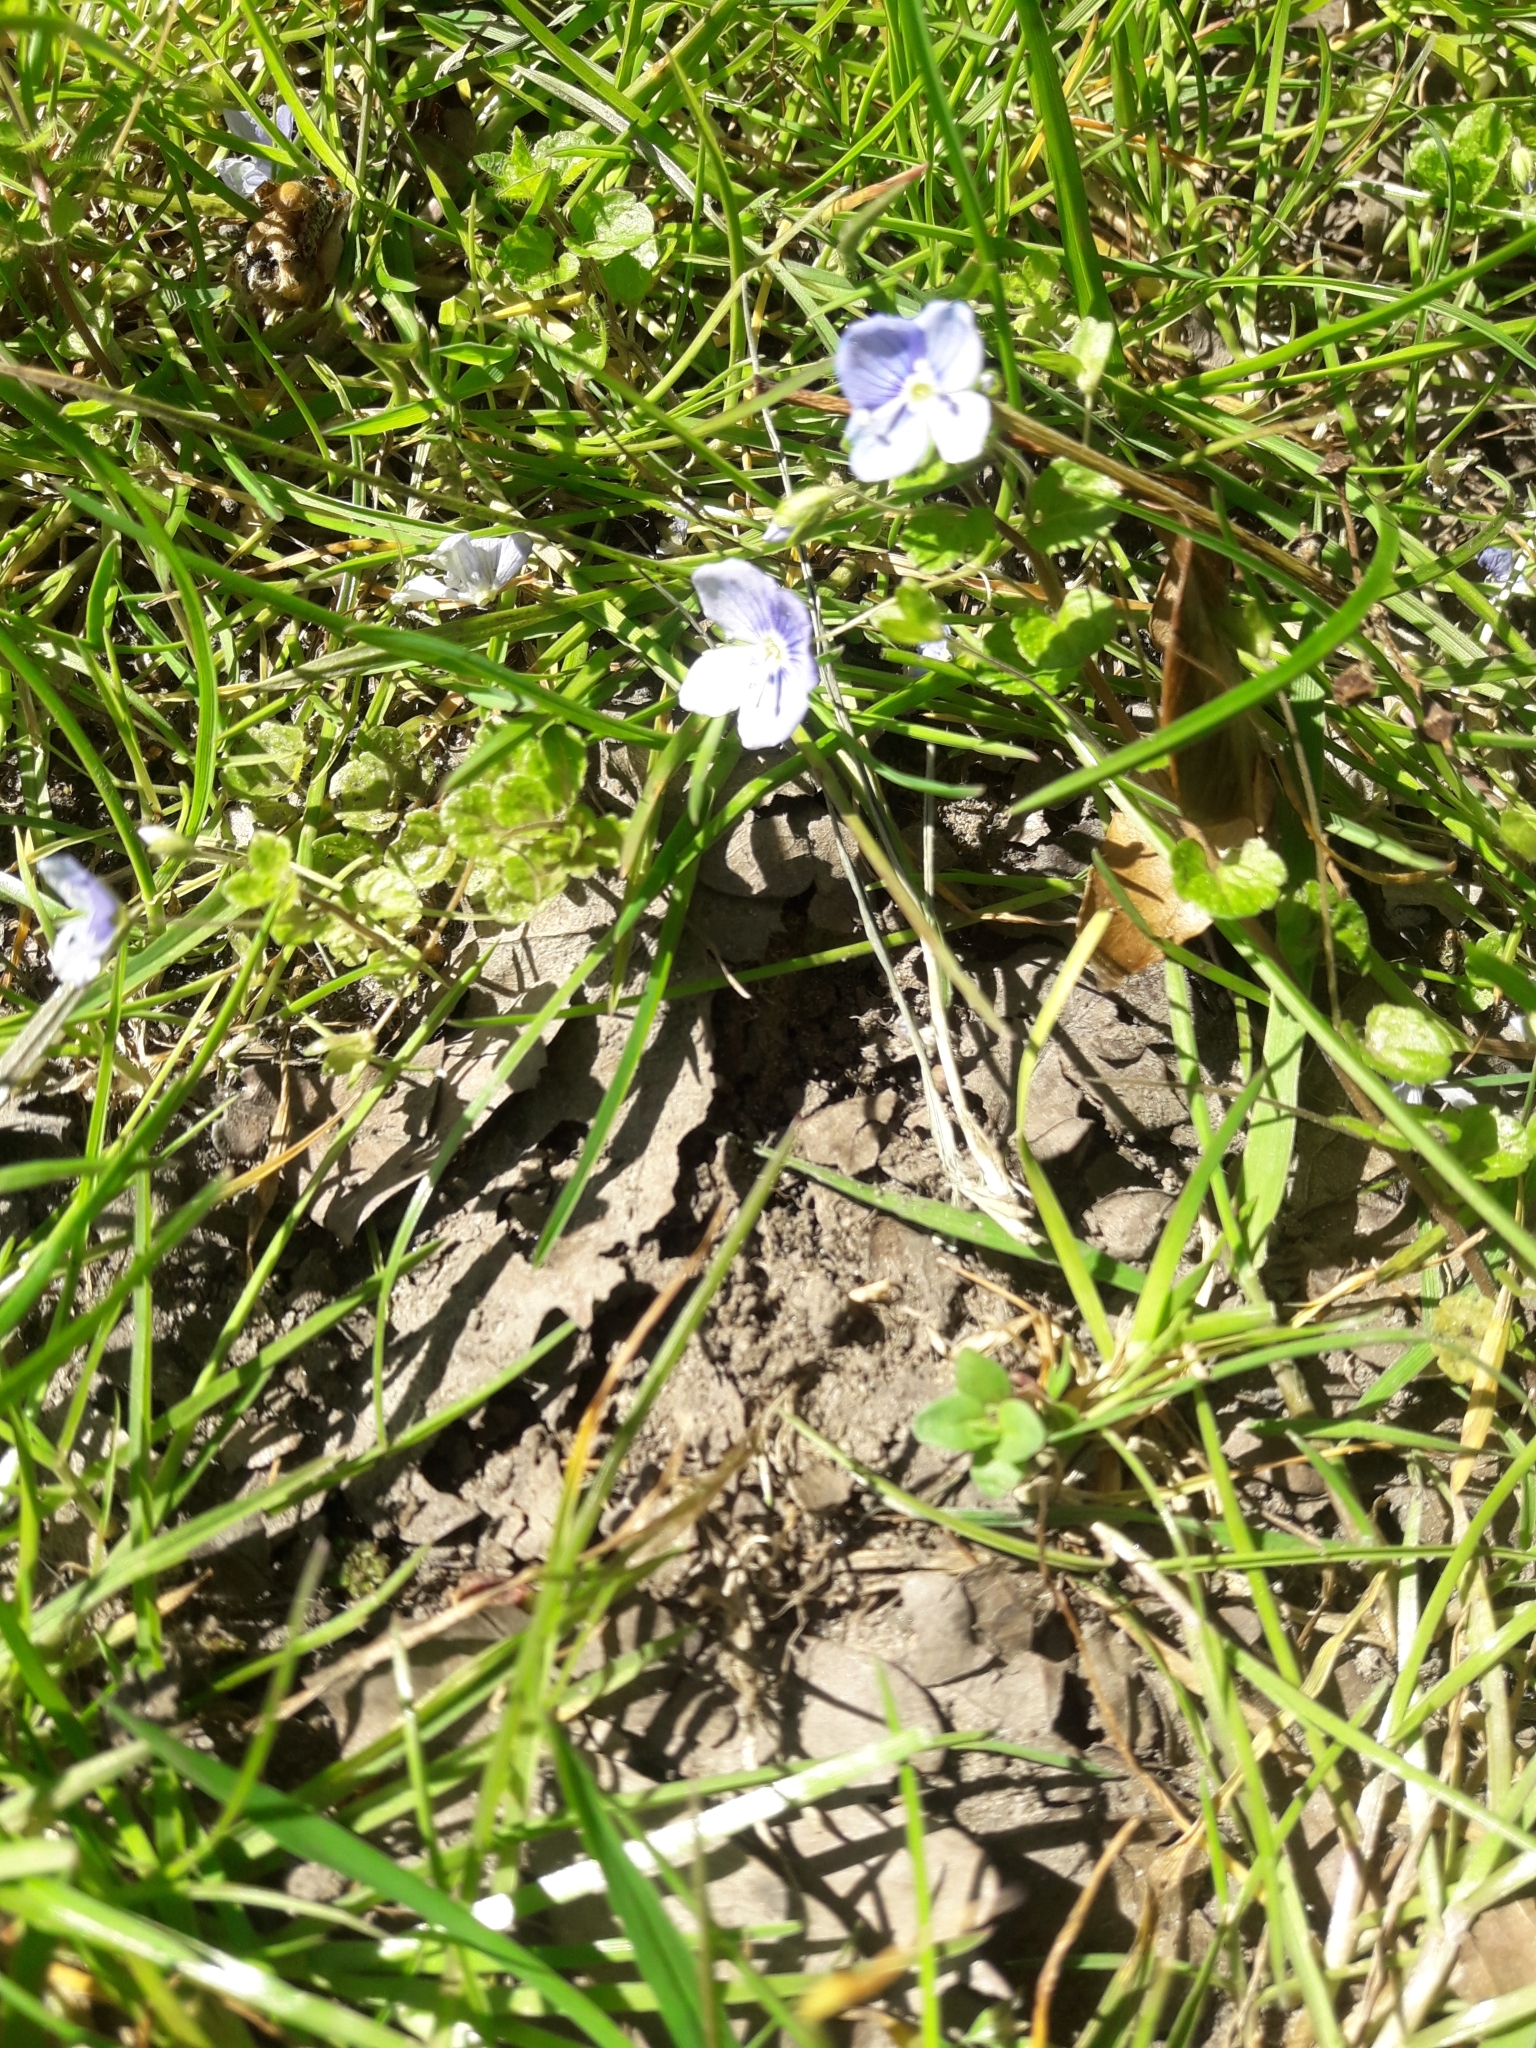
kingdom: Plantae
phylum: Tracheophyta
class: Magnoliopsida
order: Lamiales
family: Plantaginaceae
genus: Veronica
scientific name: Veronica filiformis
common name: Slender speedwell
